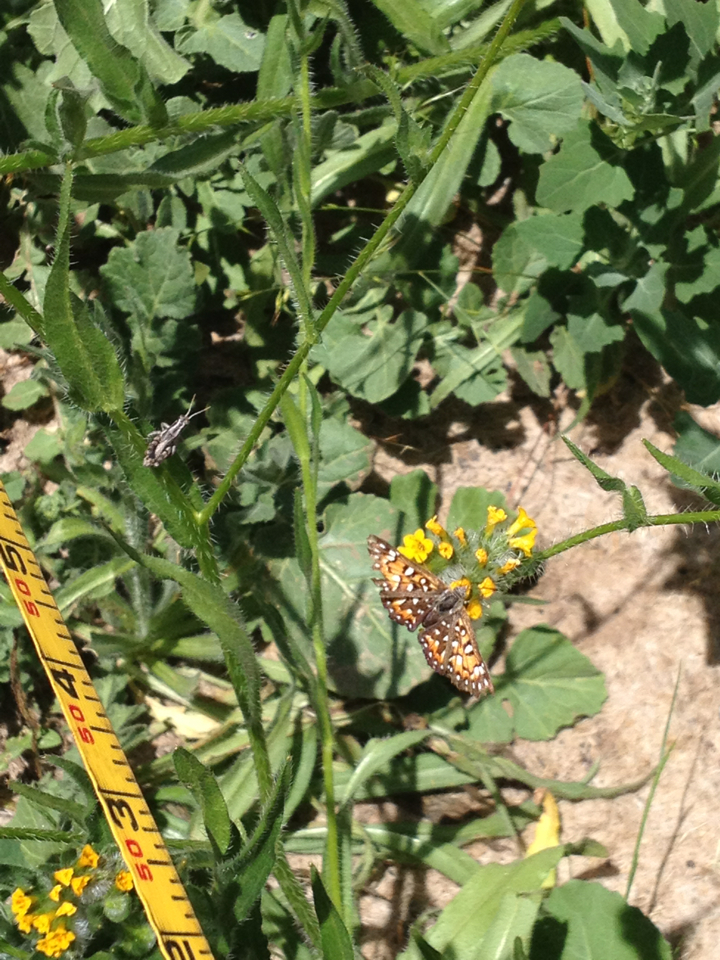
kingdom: Animalia
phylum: Arthropoda
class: Insecta
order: Lepidoptera
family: Riodinidae
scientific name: Riodinidae
